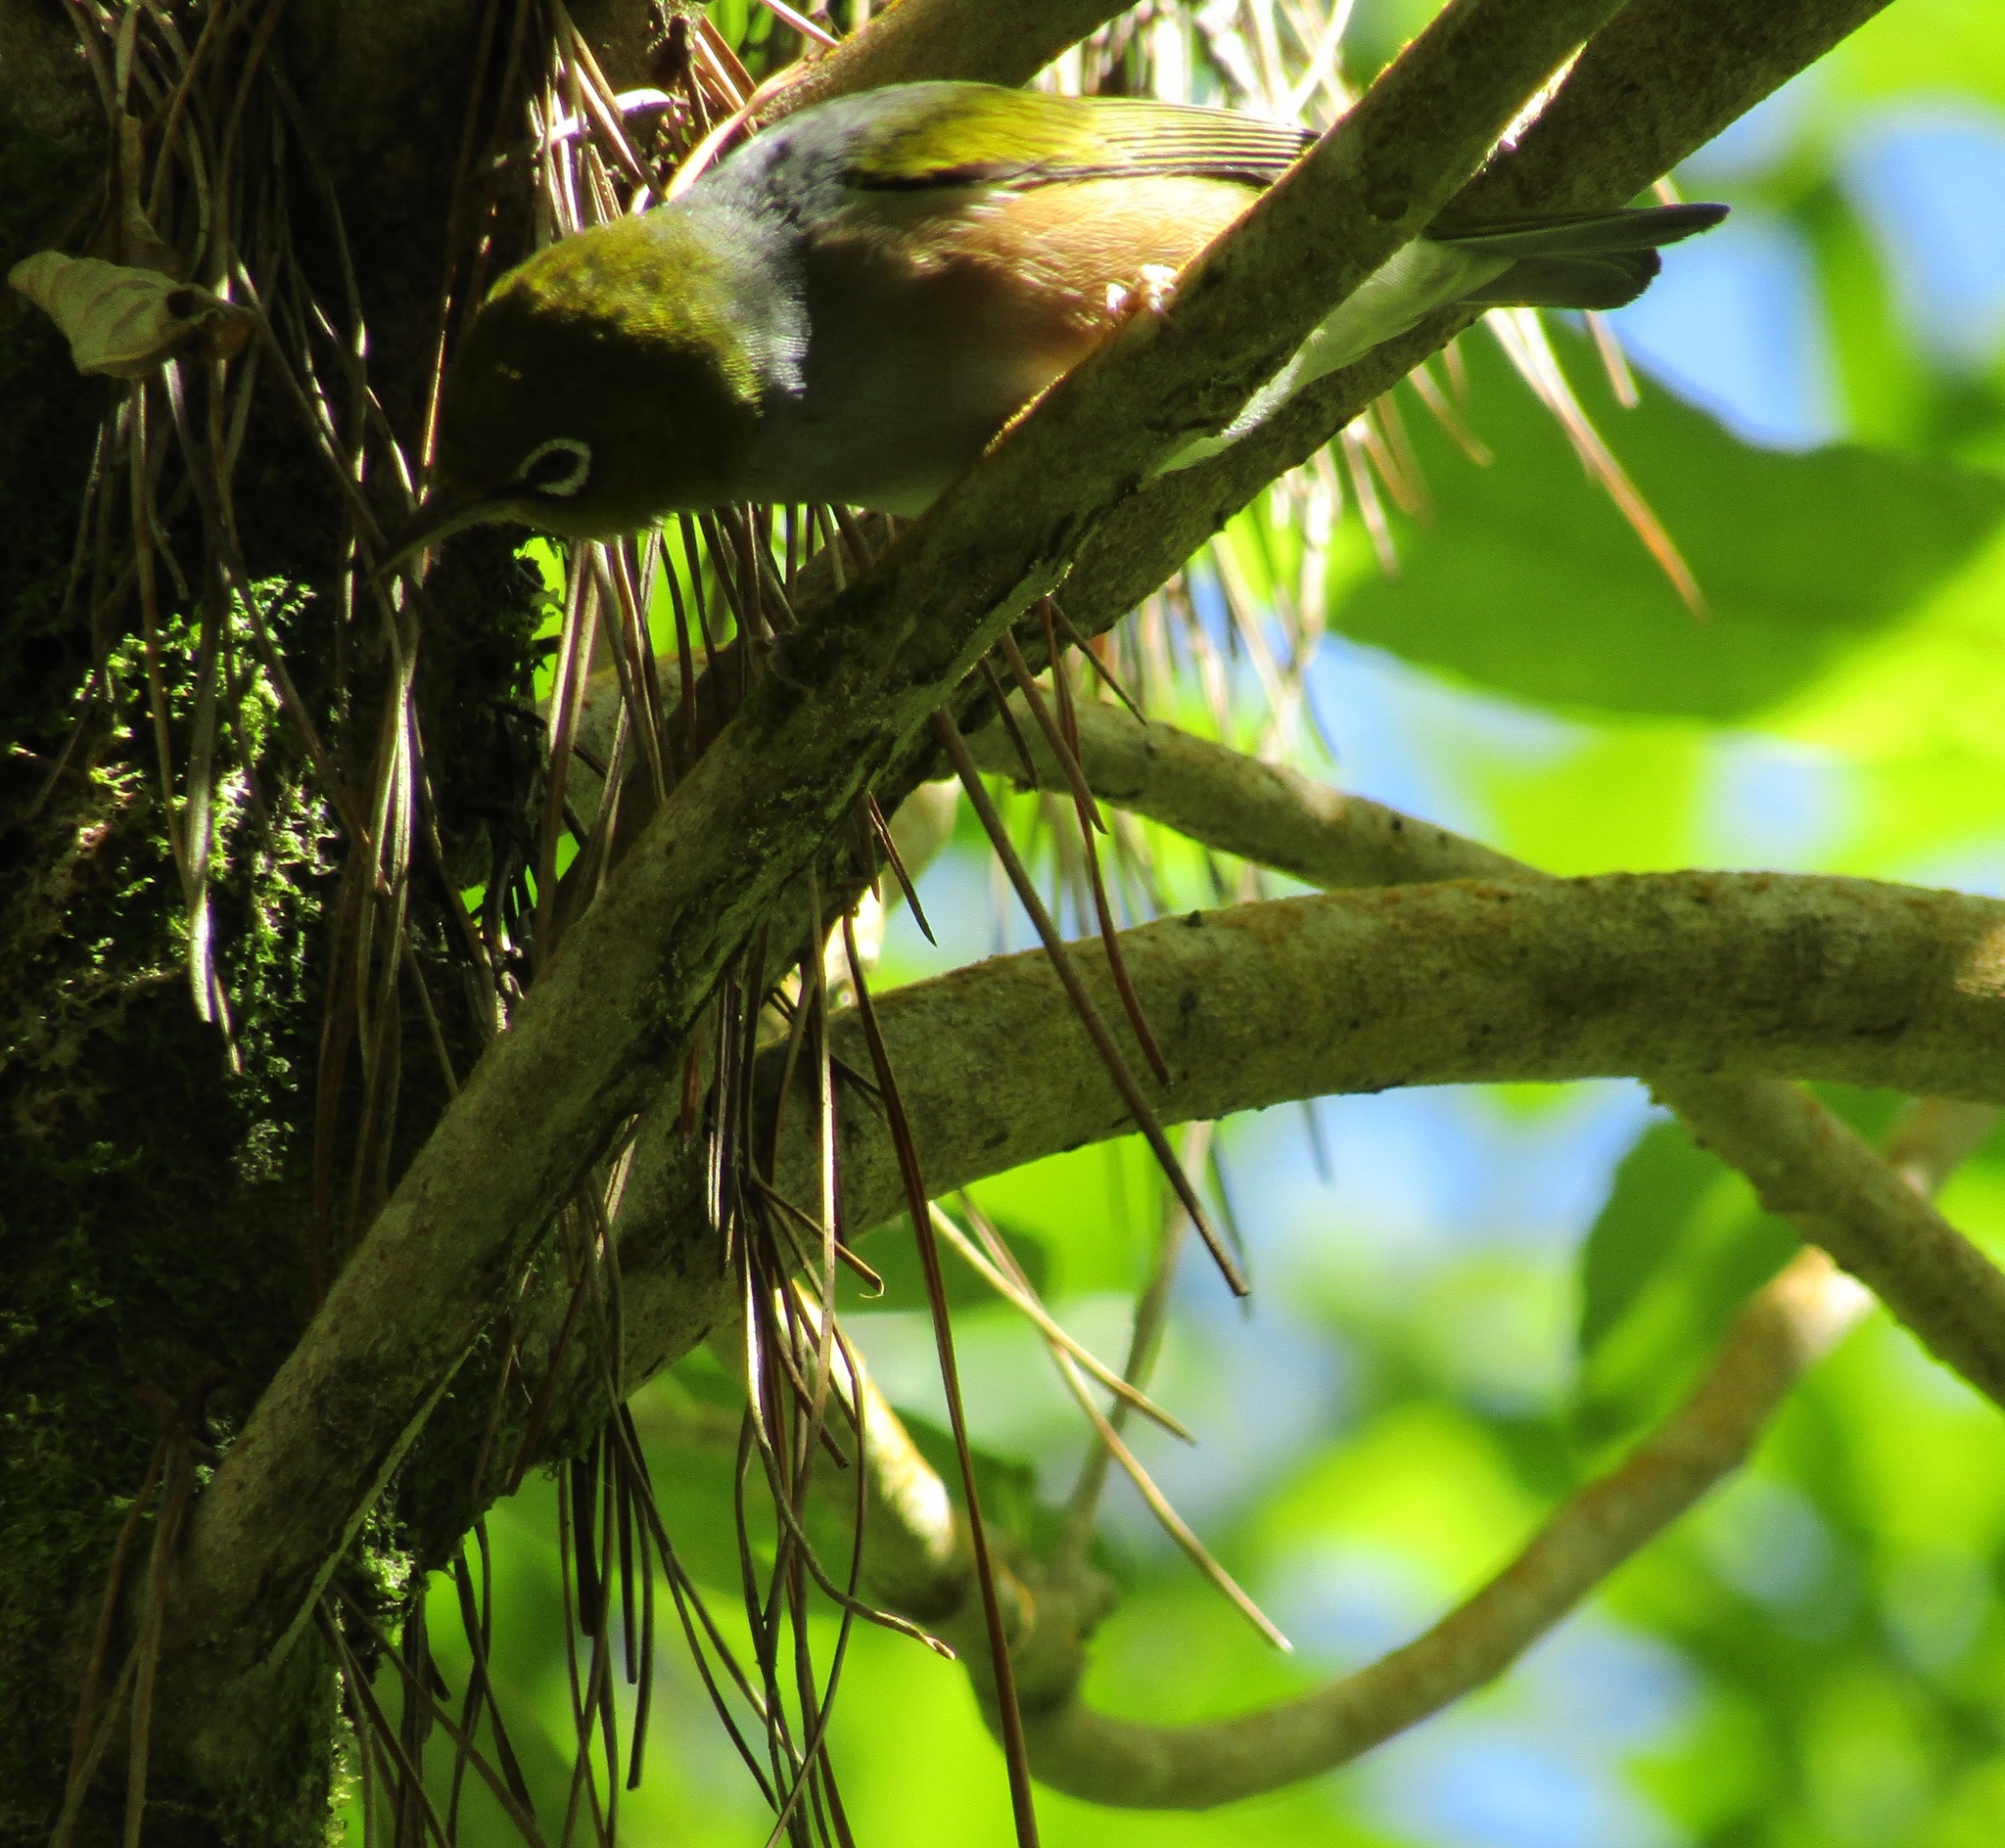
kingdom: Animalia
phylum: Chordata
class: Aves
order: Passeriformes
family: Zosteropidae
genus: Zosterops
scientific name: Zosterops lateralis
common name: Silvereye
